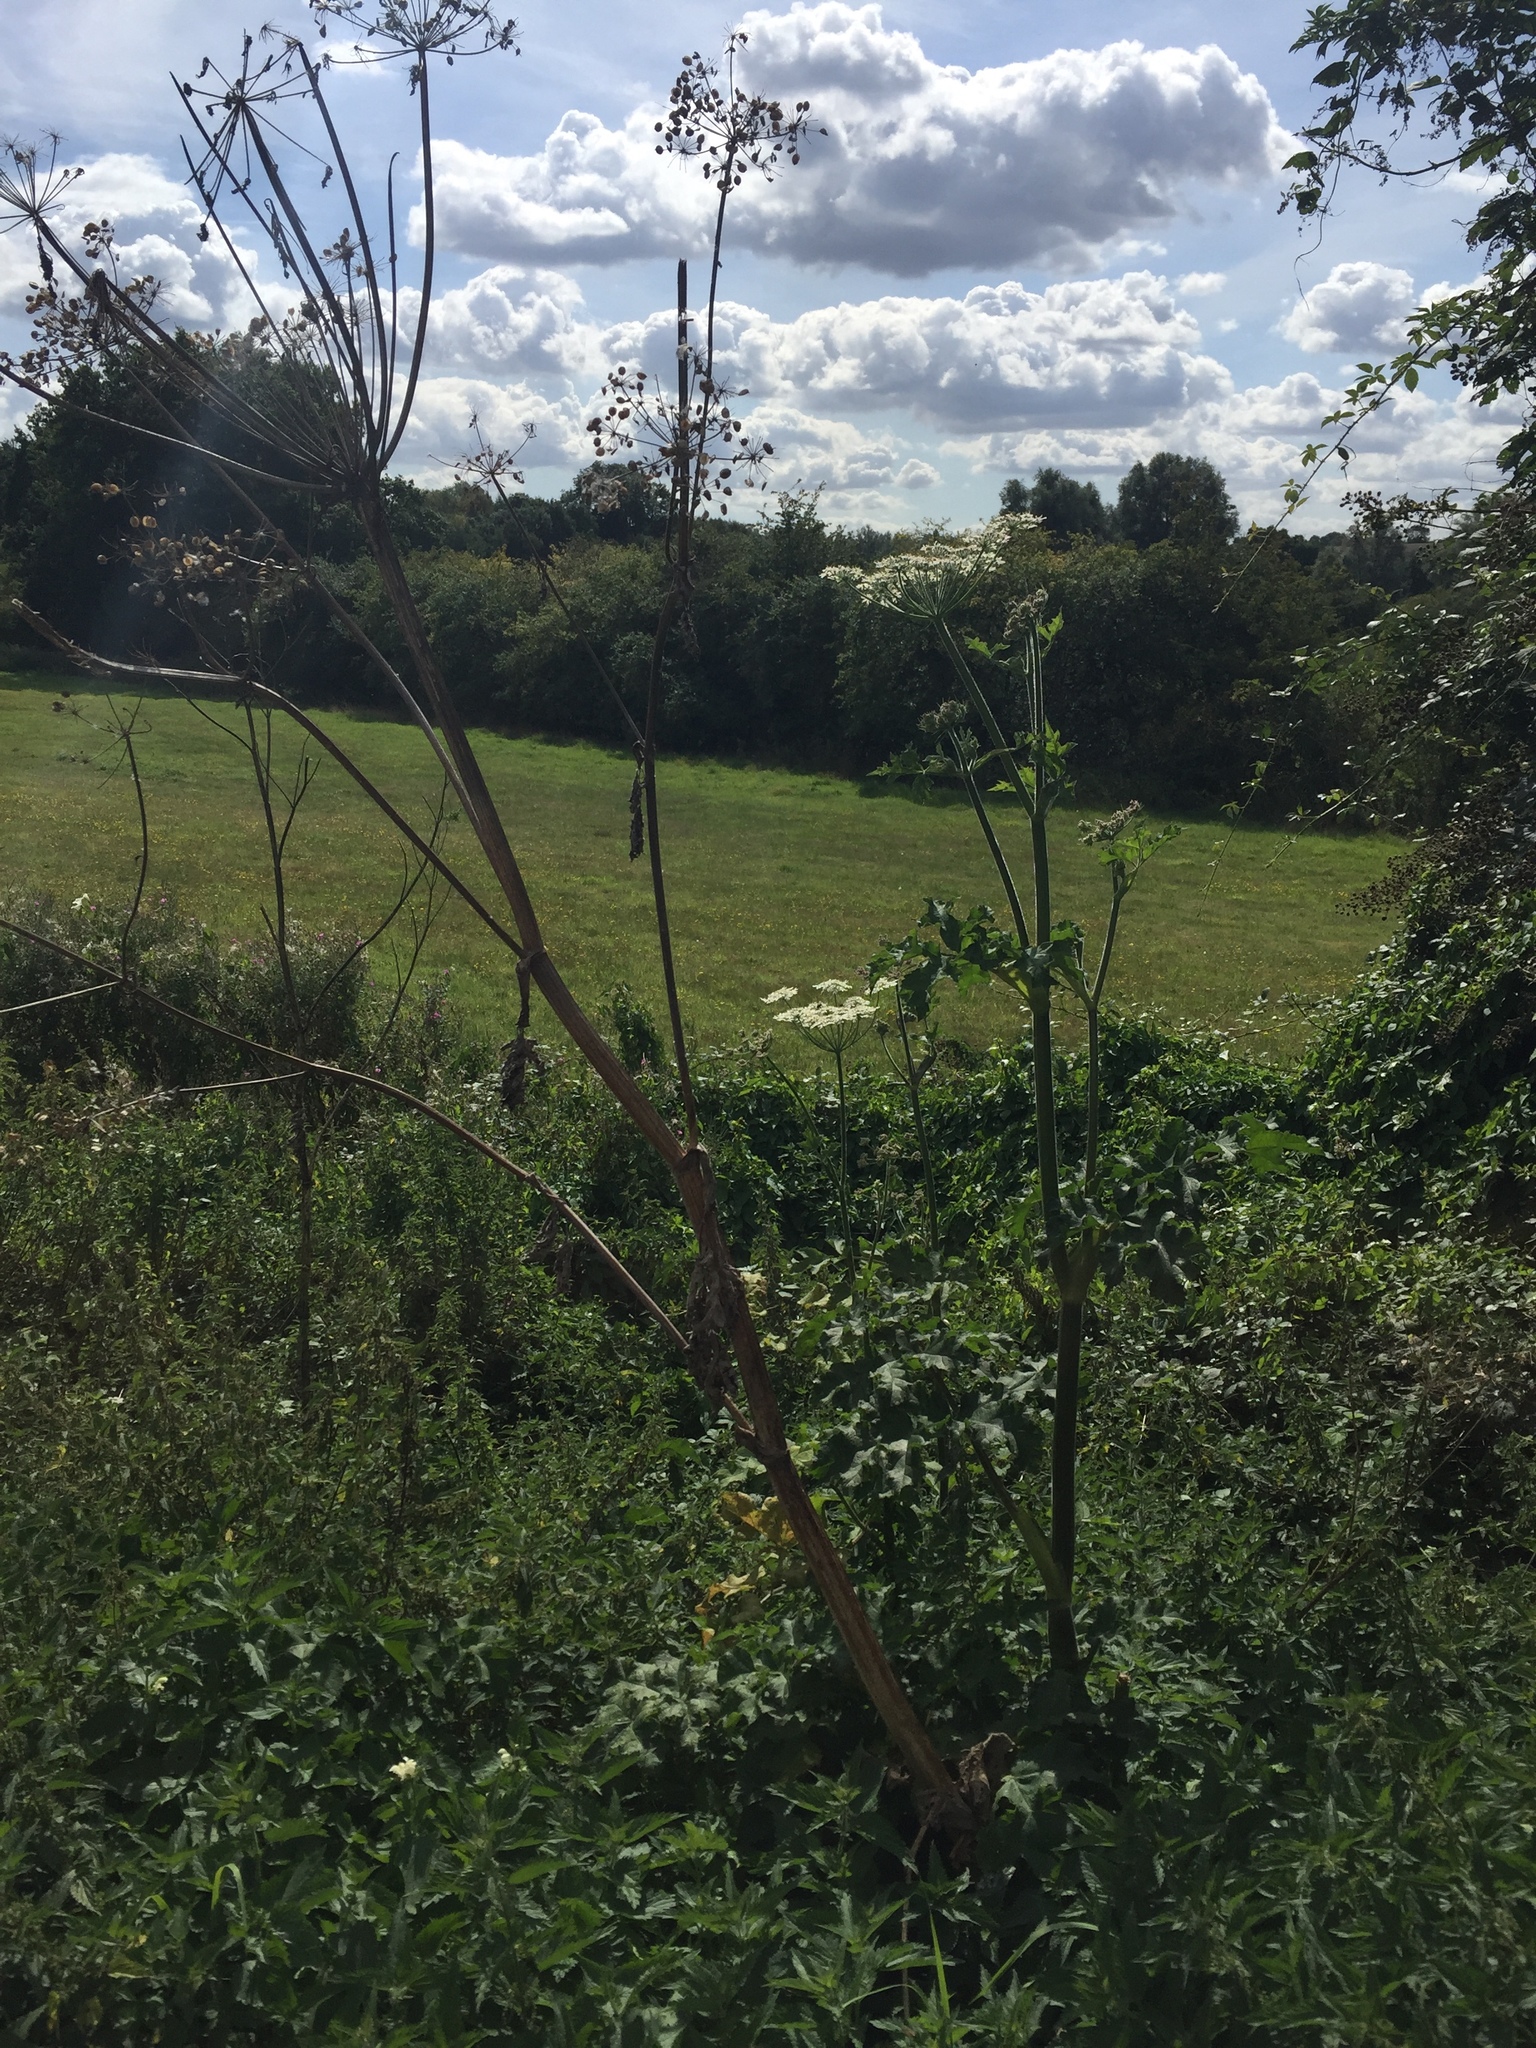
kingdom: Plantae
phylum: Tracheophyta
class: Magnoliopsida
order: Apiales
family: Apiaceae
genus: Heracleum
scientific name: Heracleum sphondylium
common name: Hogweed
